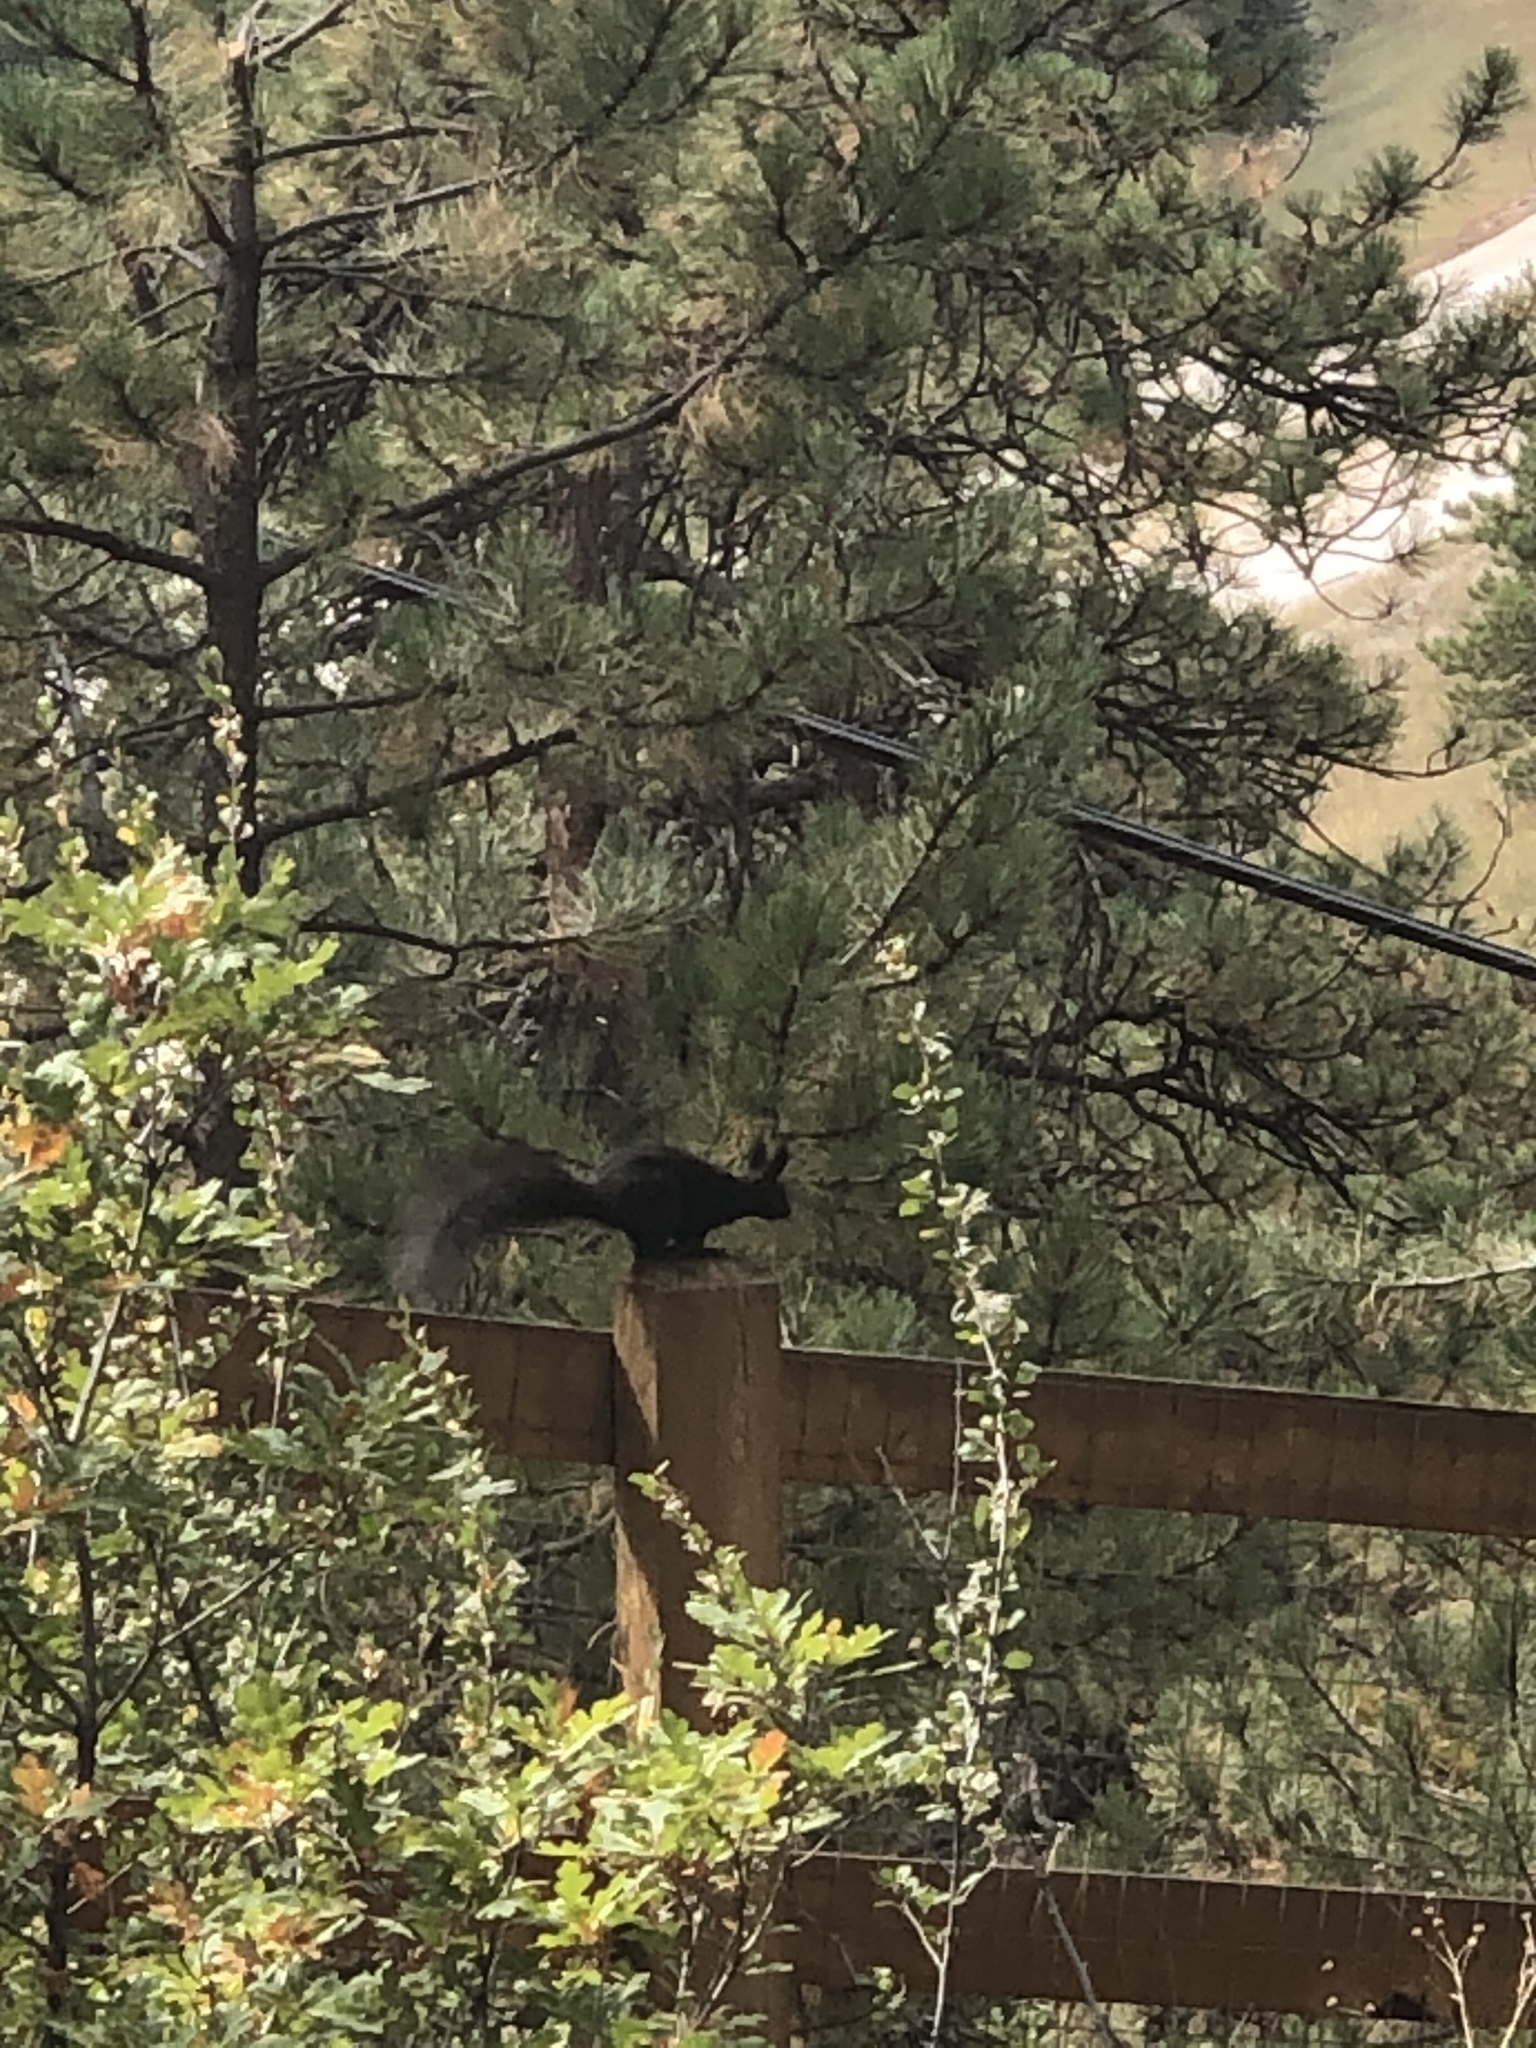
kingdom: Animalia
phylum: Chordata
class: Mammalia
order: Rodentia
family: Sciuridae
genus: Sciurus
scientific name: Sciurus aberti
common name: Abert's squirrel
